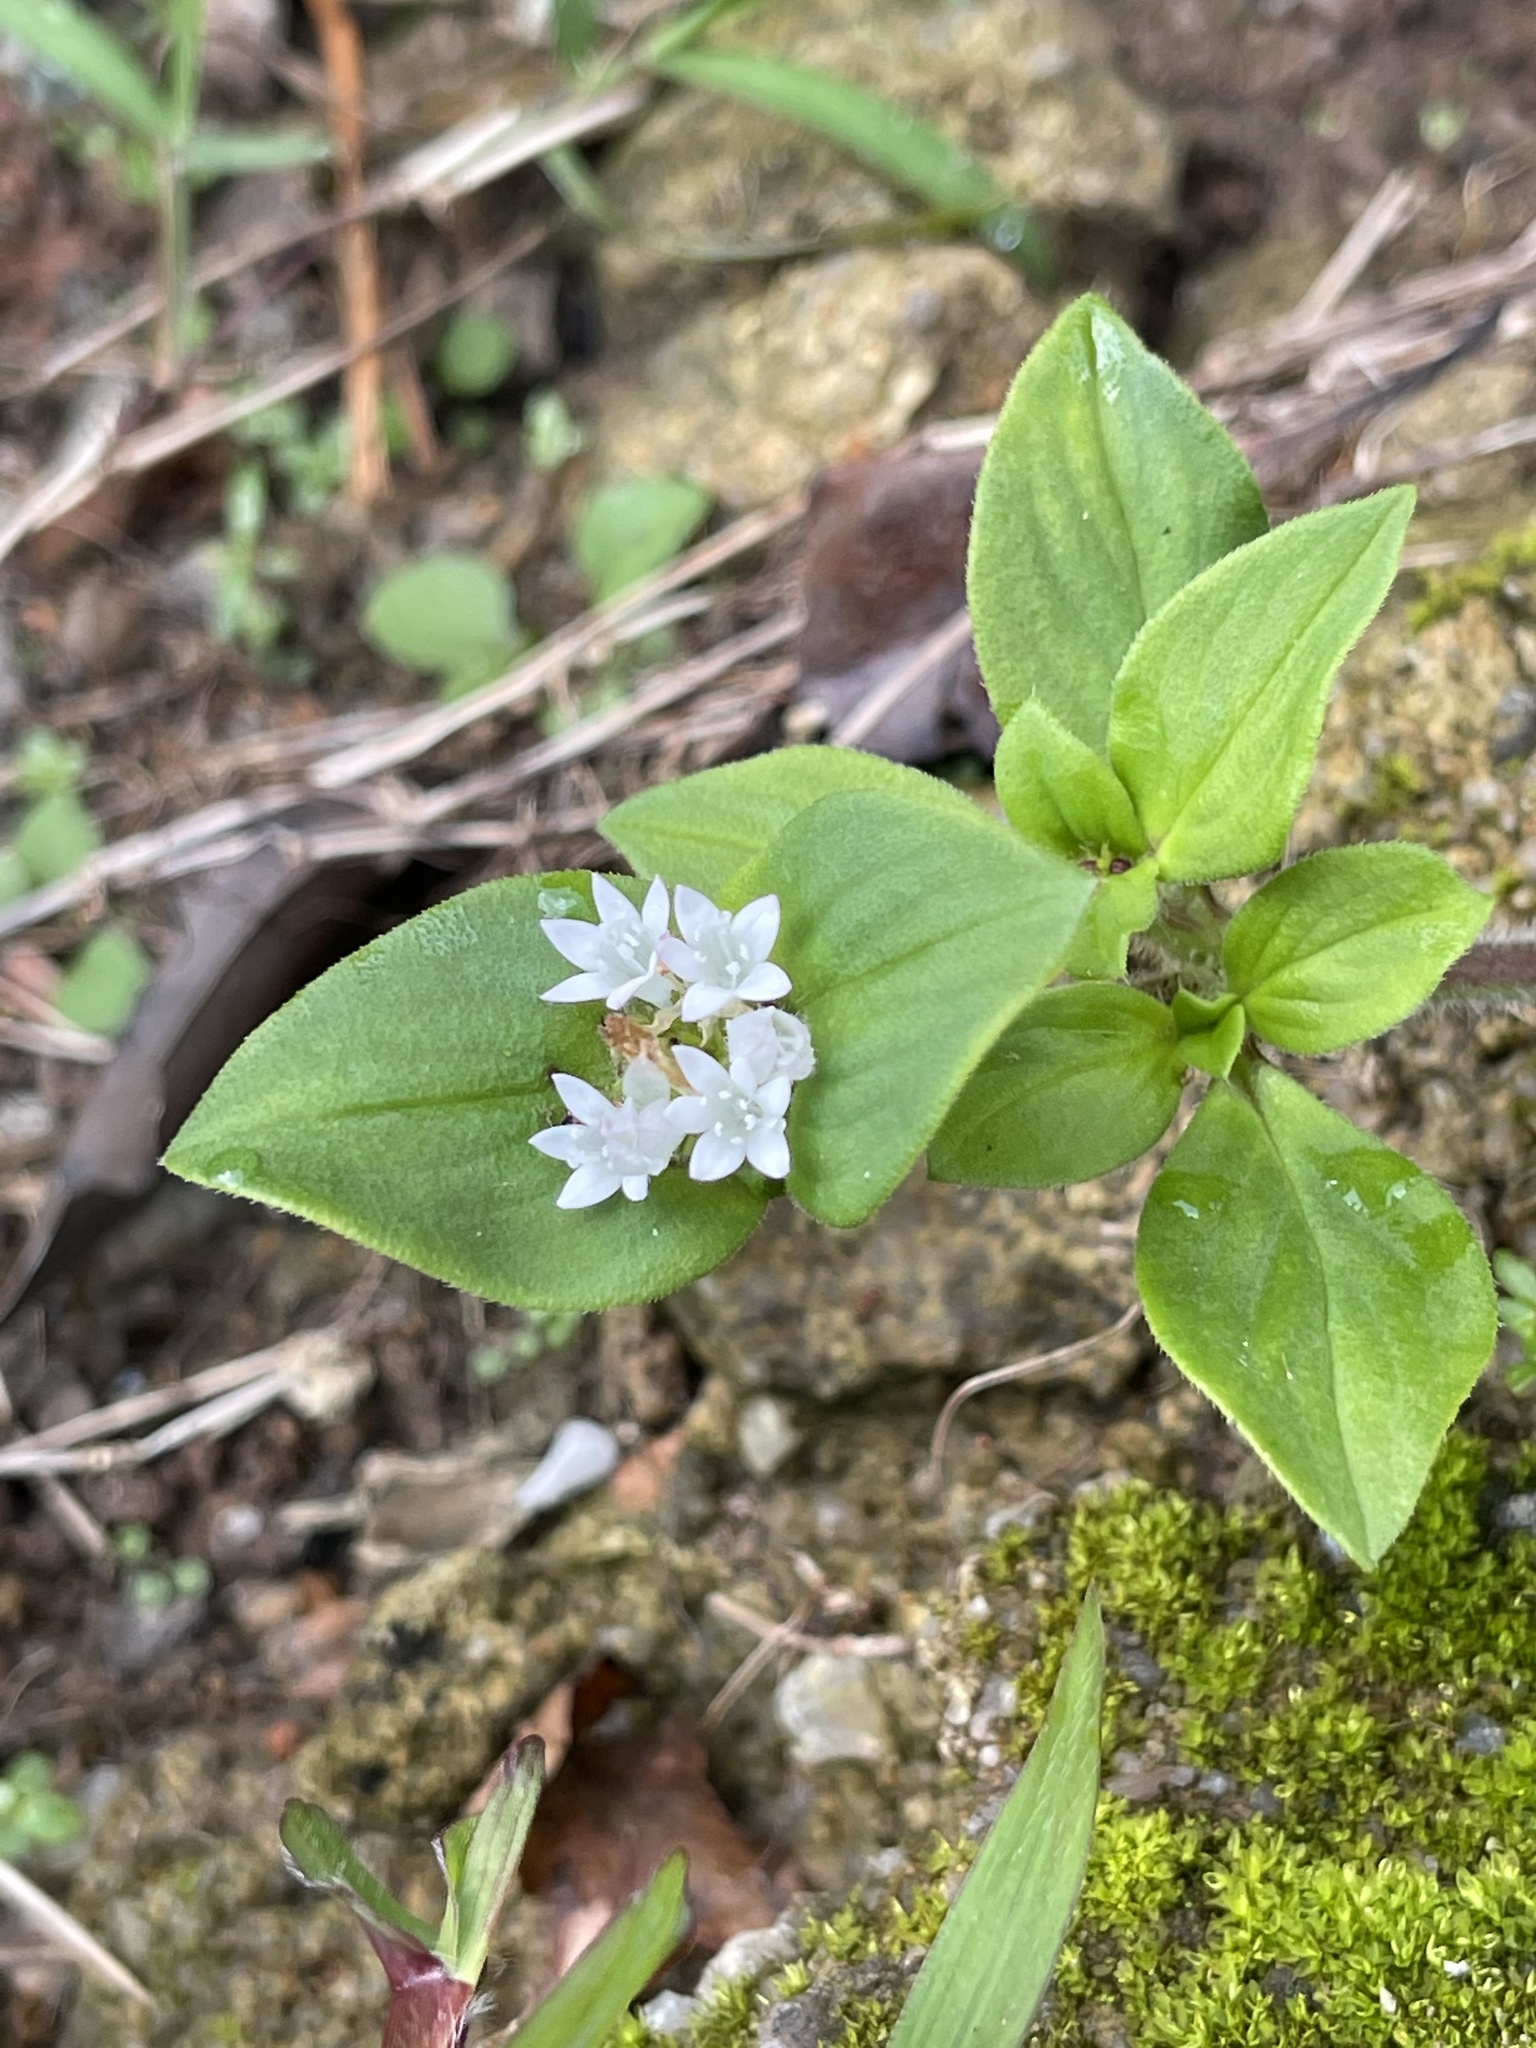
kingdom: Plantae
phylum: Tracheophyta
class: Magnoliopsida
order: Gentianales
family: Rubiaceae
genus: Richardia
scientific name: Richardia scabra
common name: Rough mexican clover
